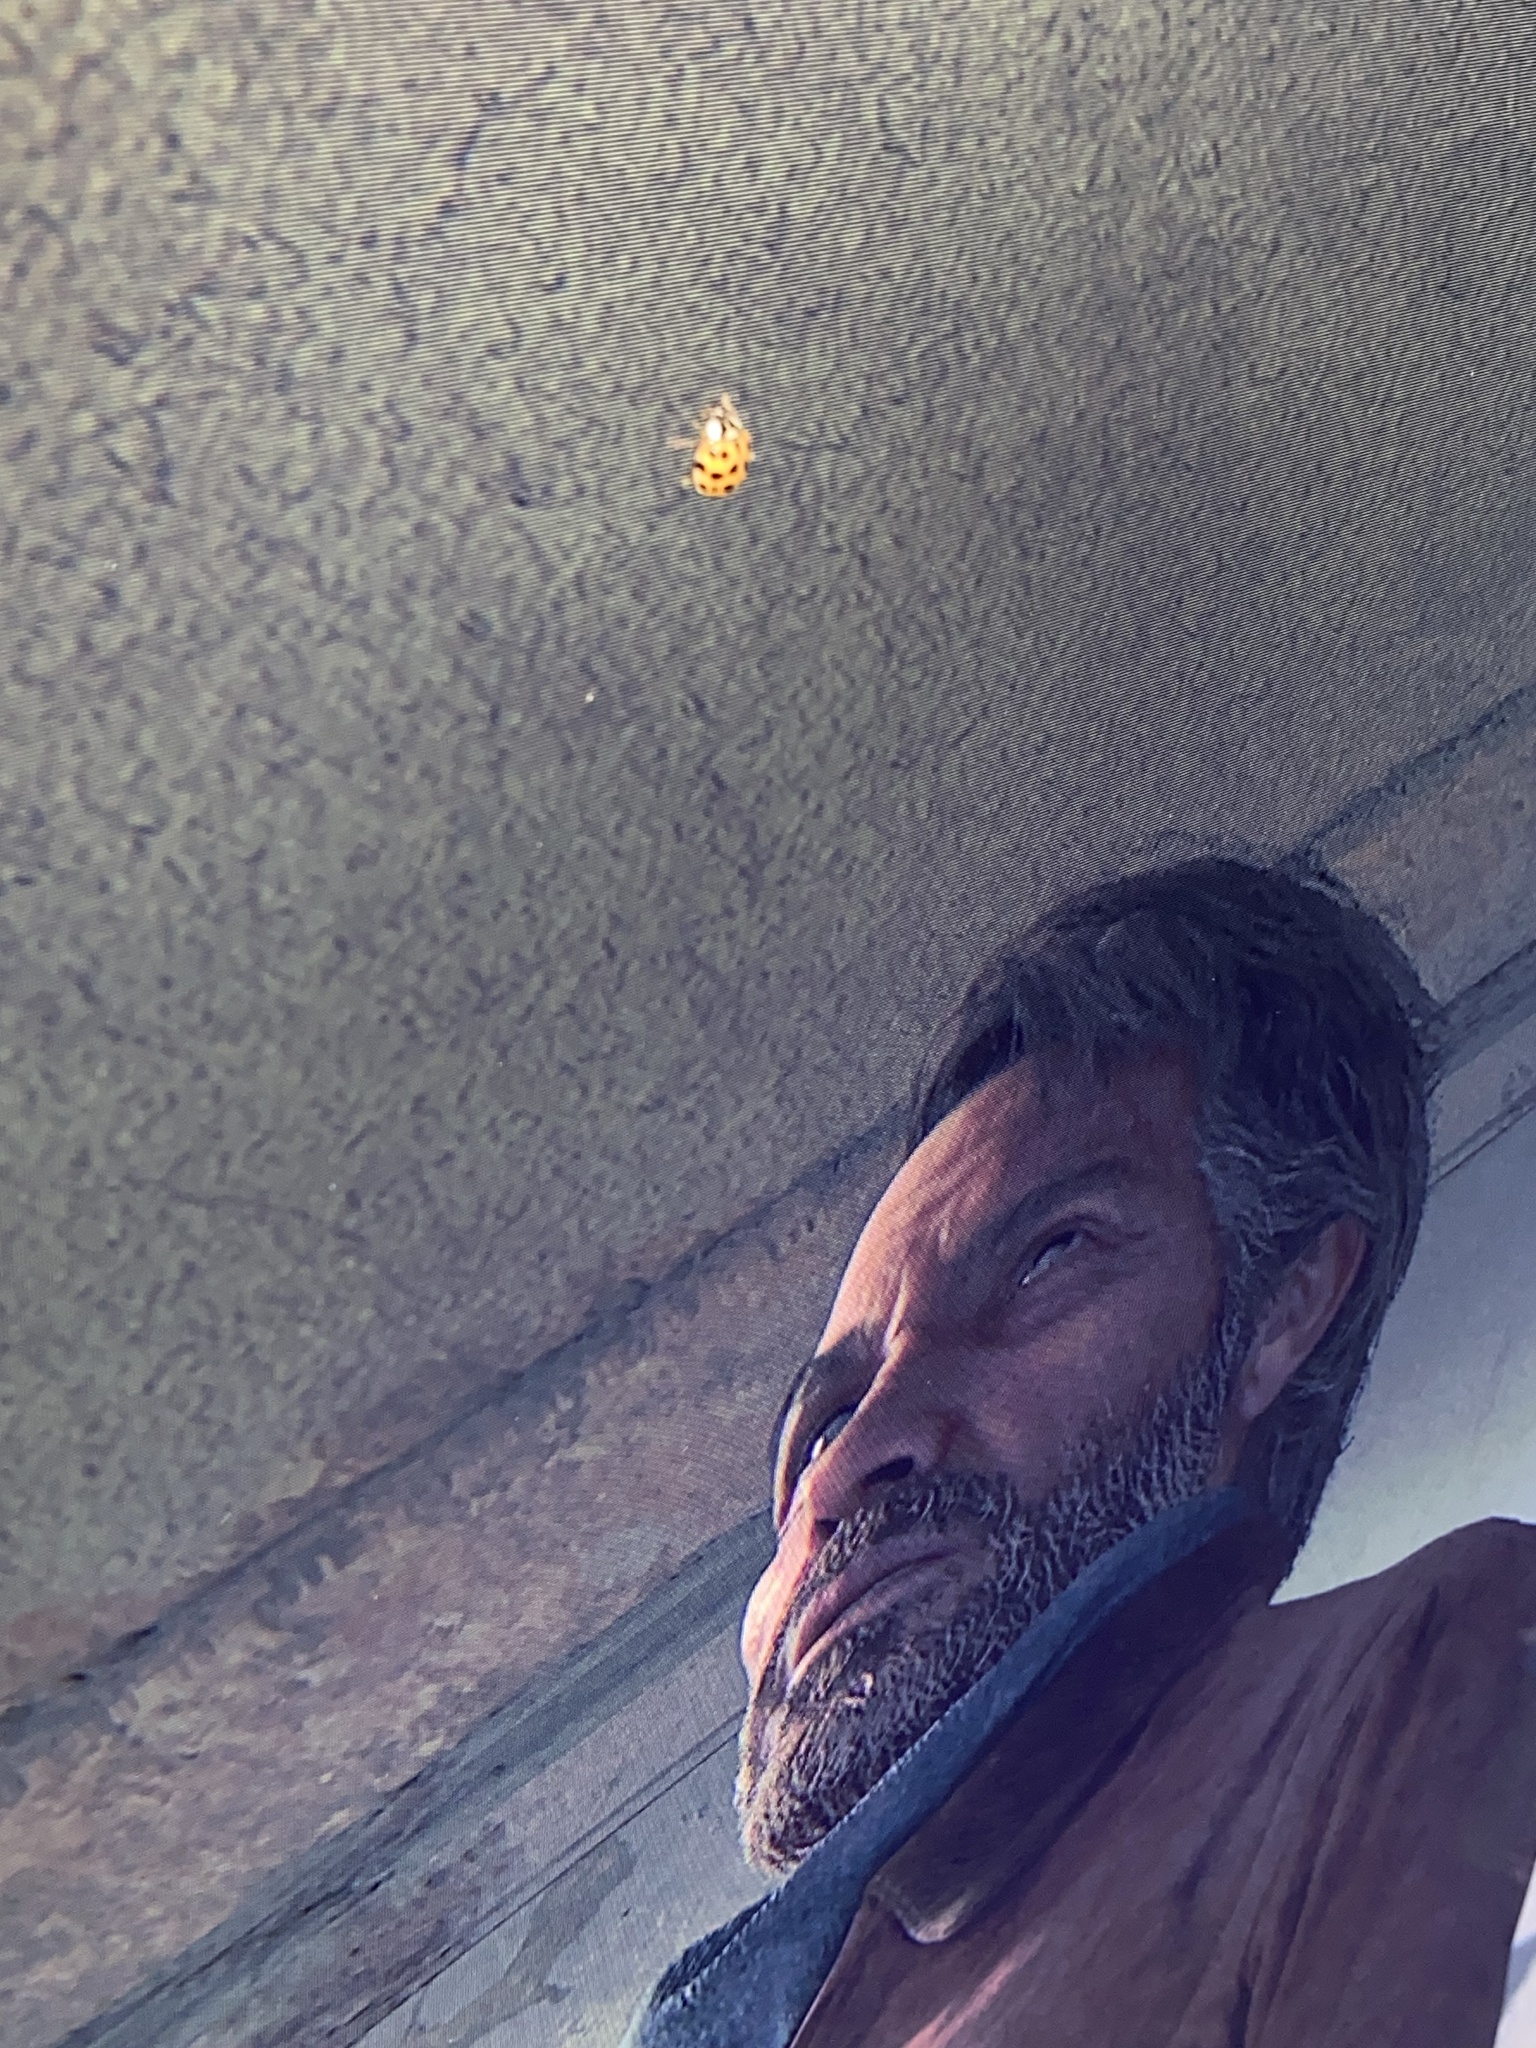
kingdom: Animalia
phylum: Arthropoda
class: Insecta
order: Coleoptera
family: Coccinellidae
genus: Harmonia
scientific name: Harmonia axyridis
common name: Harlequin ladybird
